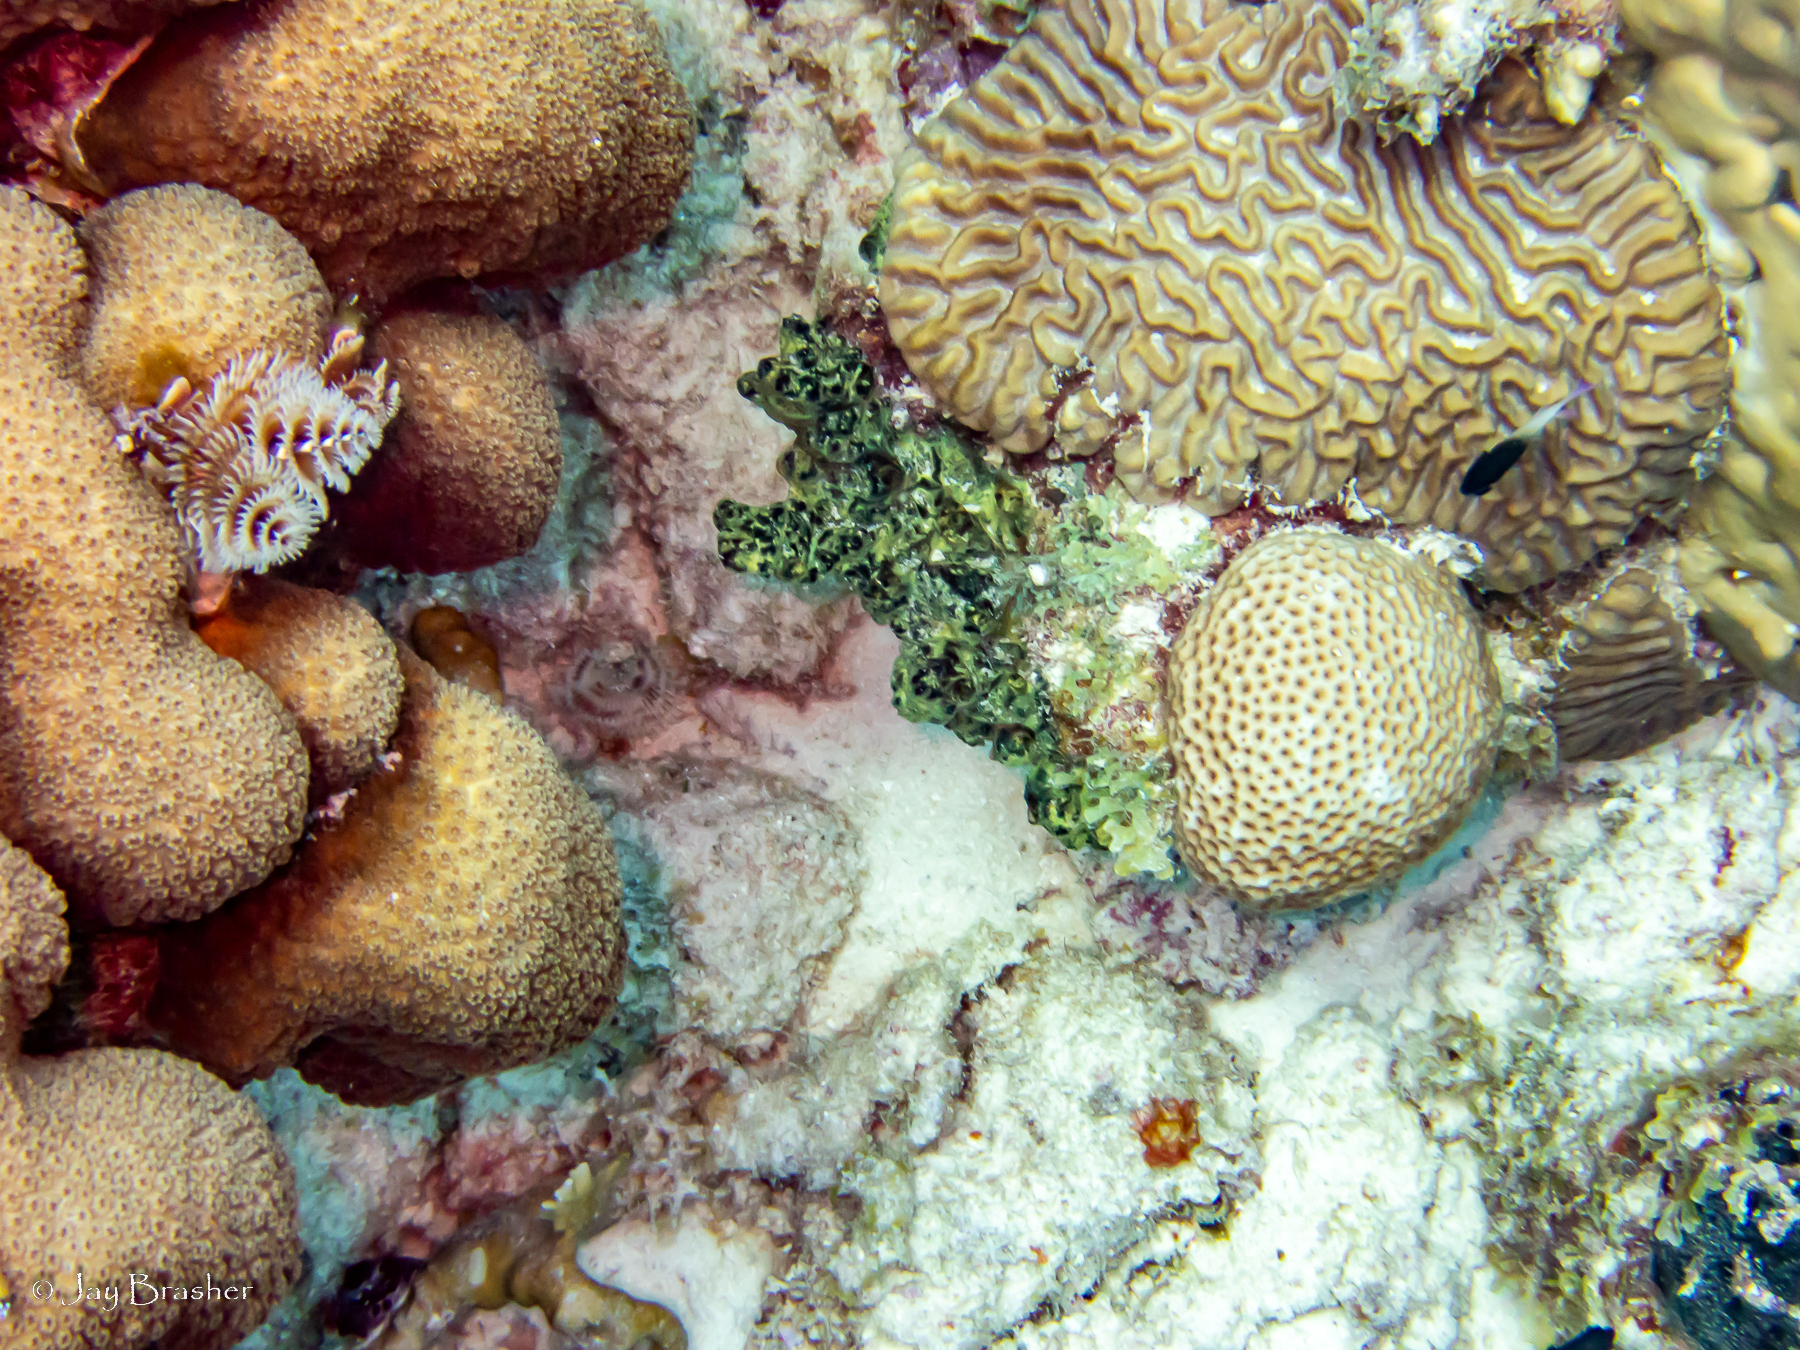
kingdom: Animalia
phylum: Porifera
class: Demospongiae
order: Poecilosclerida
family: Iotrochotidae
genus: Iotrochota
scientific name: Iotrochota birotulata
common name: Purple bleeding sponge
